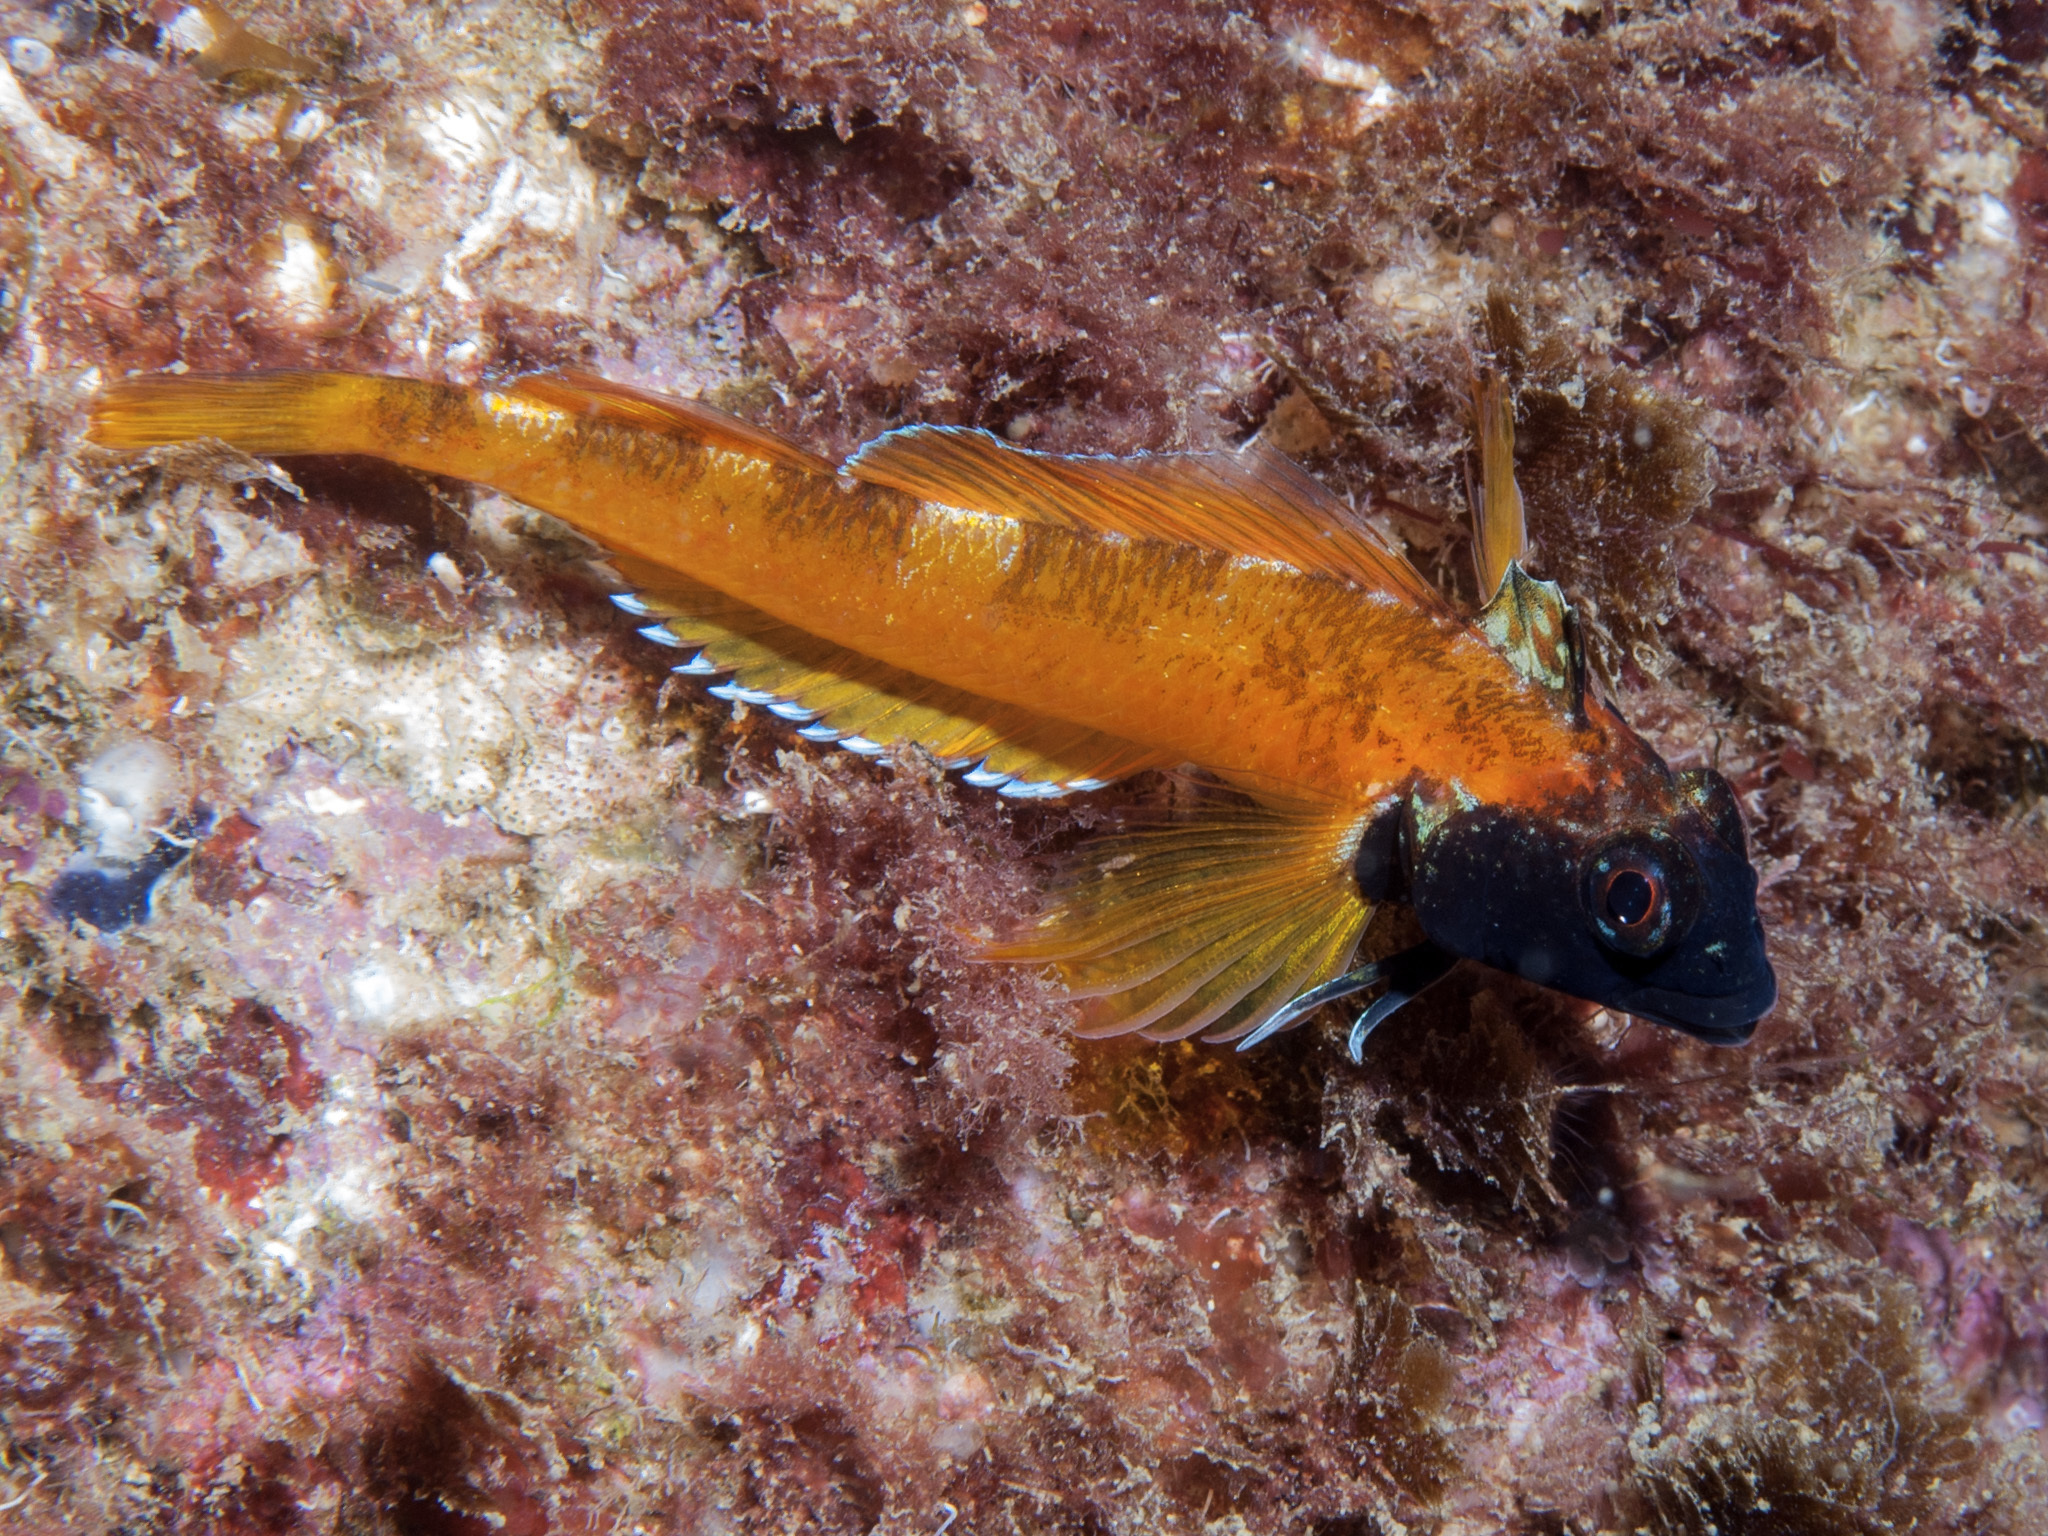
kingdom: Animalia
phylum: Chordata
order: Perciformes
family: Tripterygiidae
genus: Tripterygion
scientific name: Tripterygion delaisi
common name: Black-face blenny
